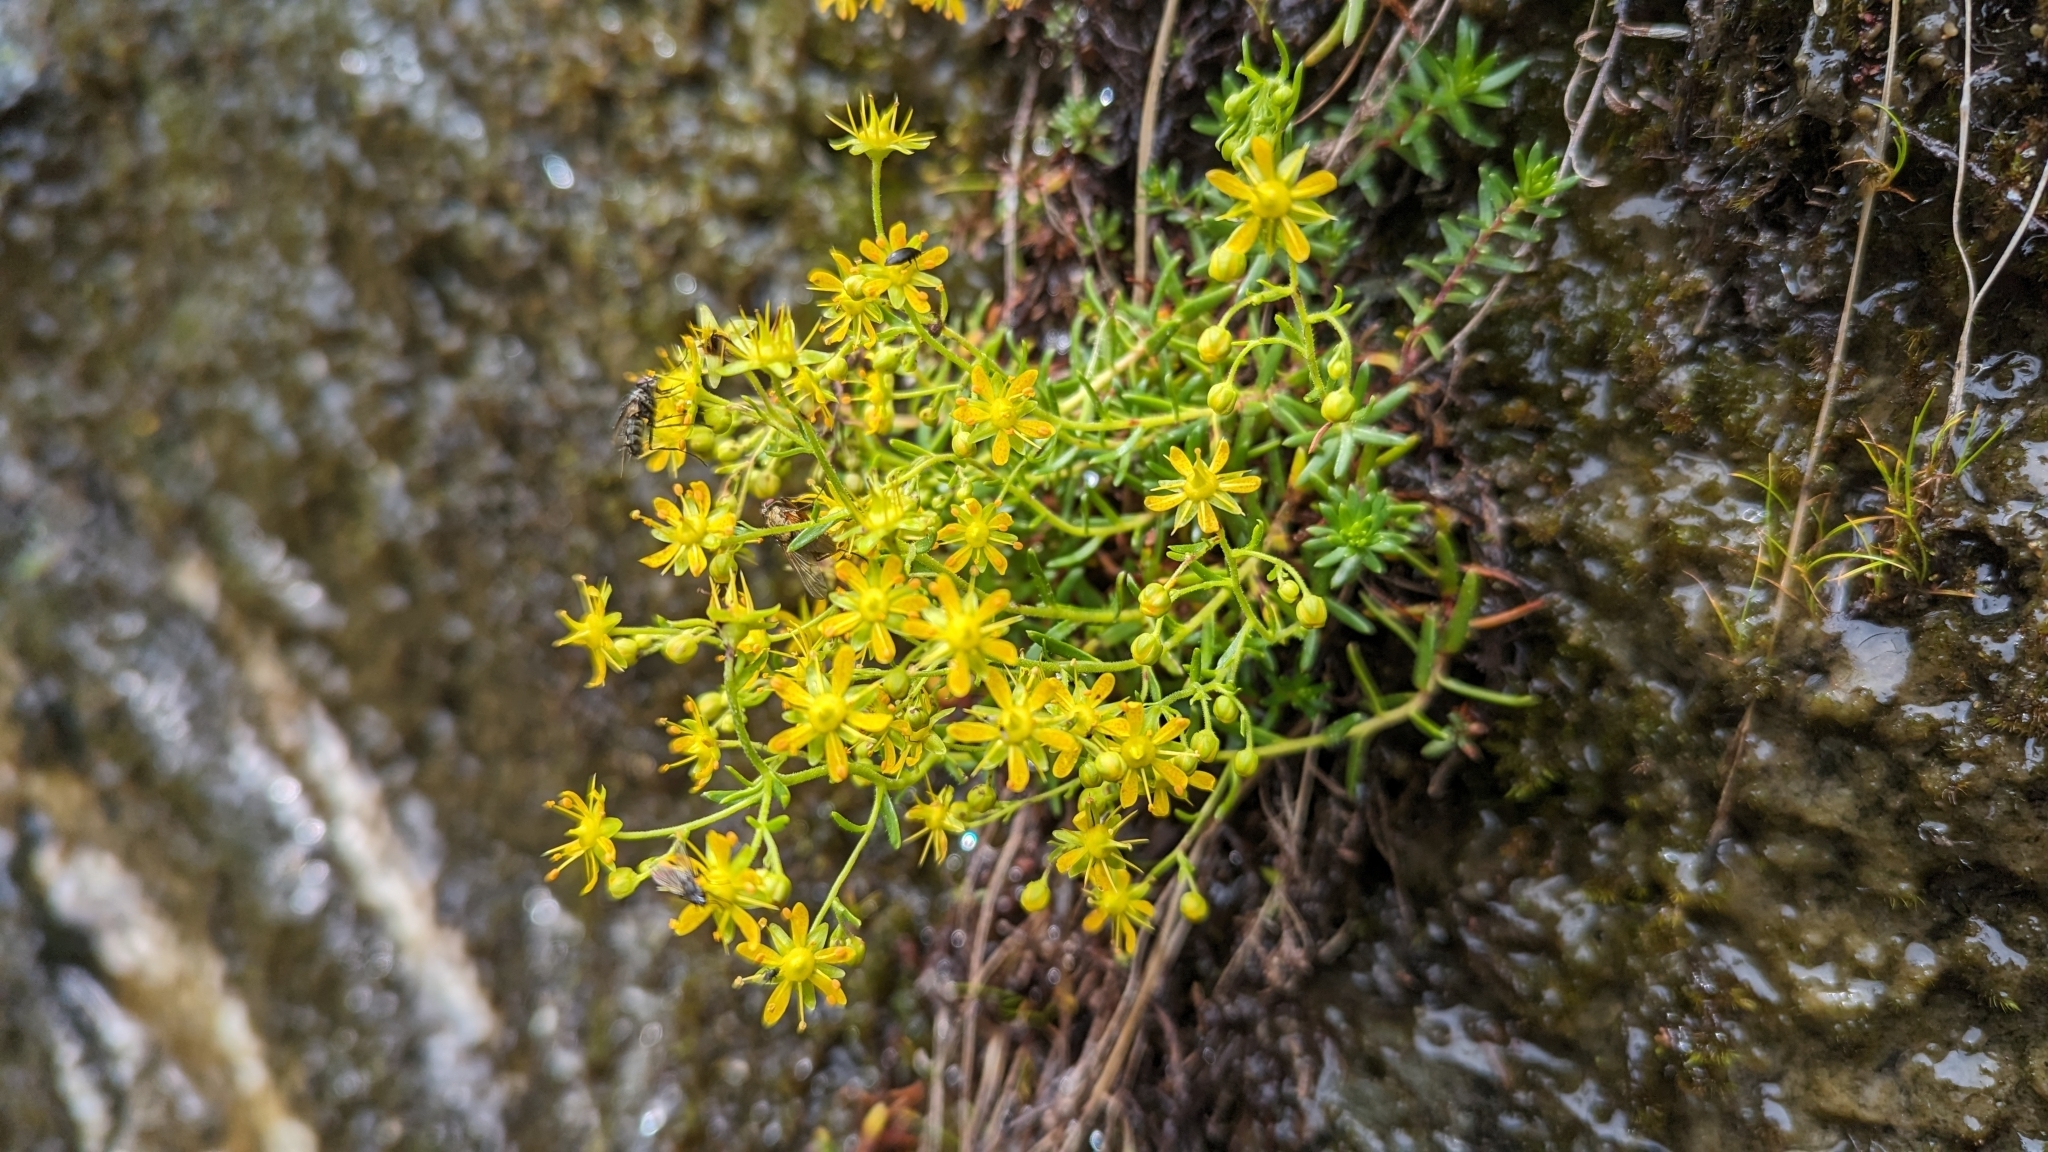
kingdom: Plantae
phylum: Tracheophyta
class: Magnoliopsida
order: Saxifragales
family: Saxifragaceae
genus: Saxifraga
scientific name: Saxifraga aizoides
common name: Yellow mountain saxifrage
